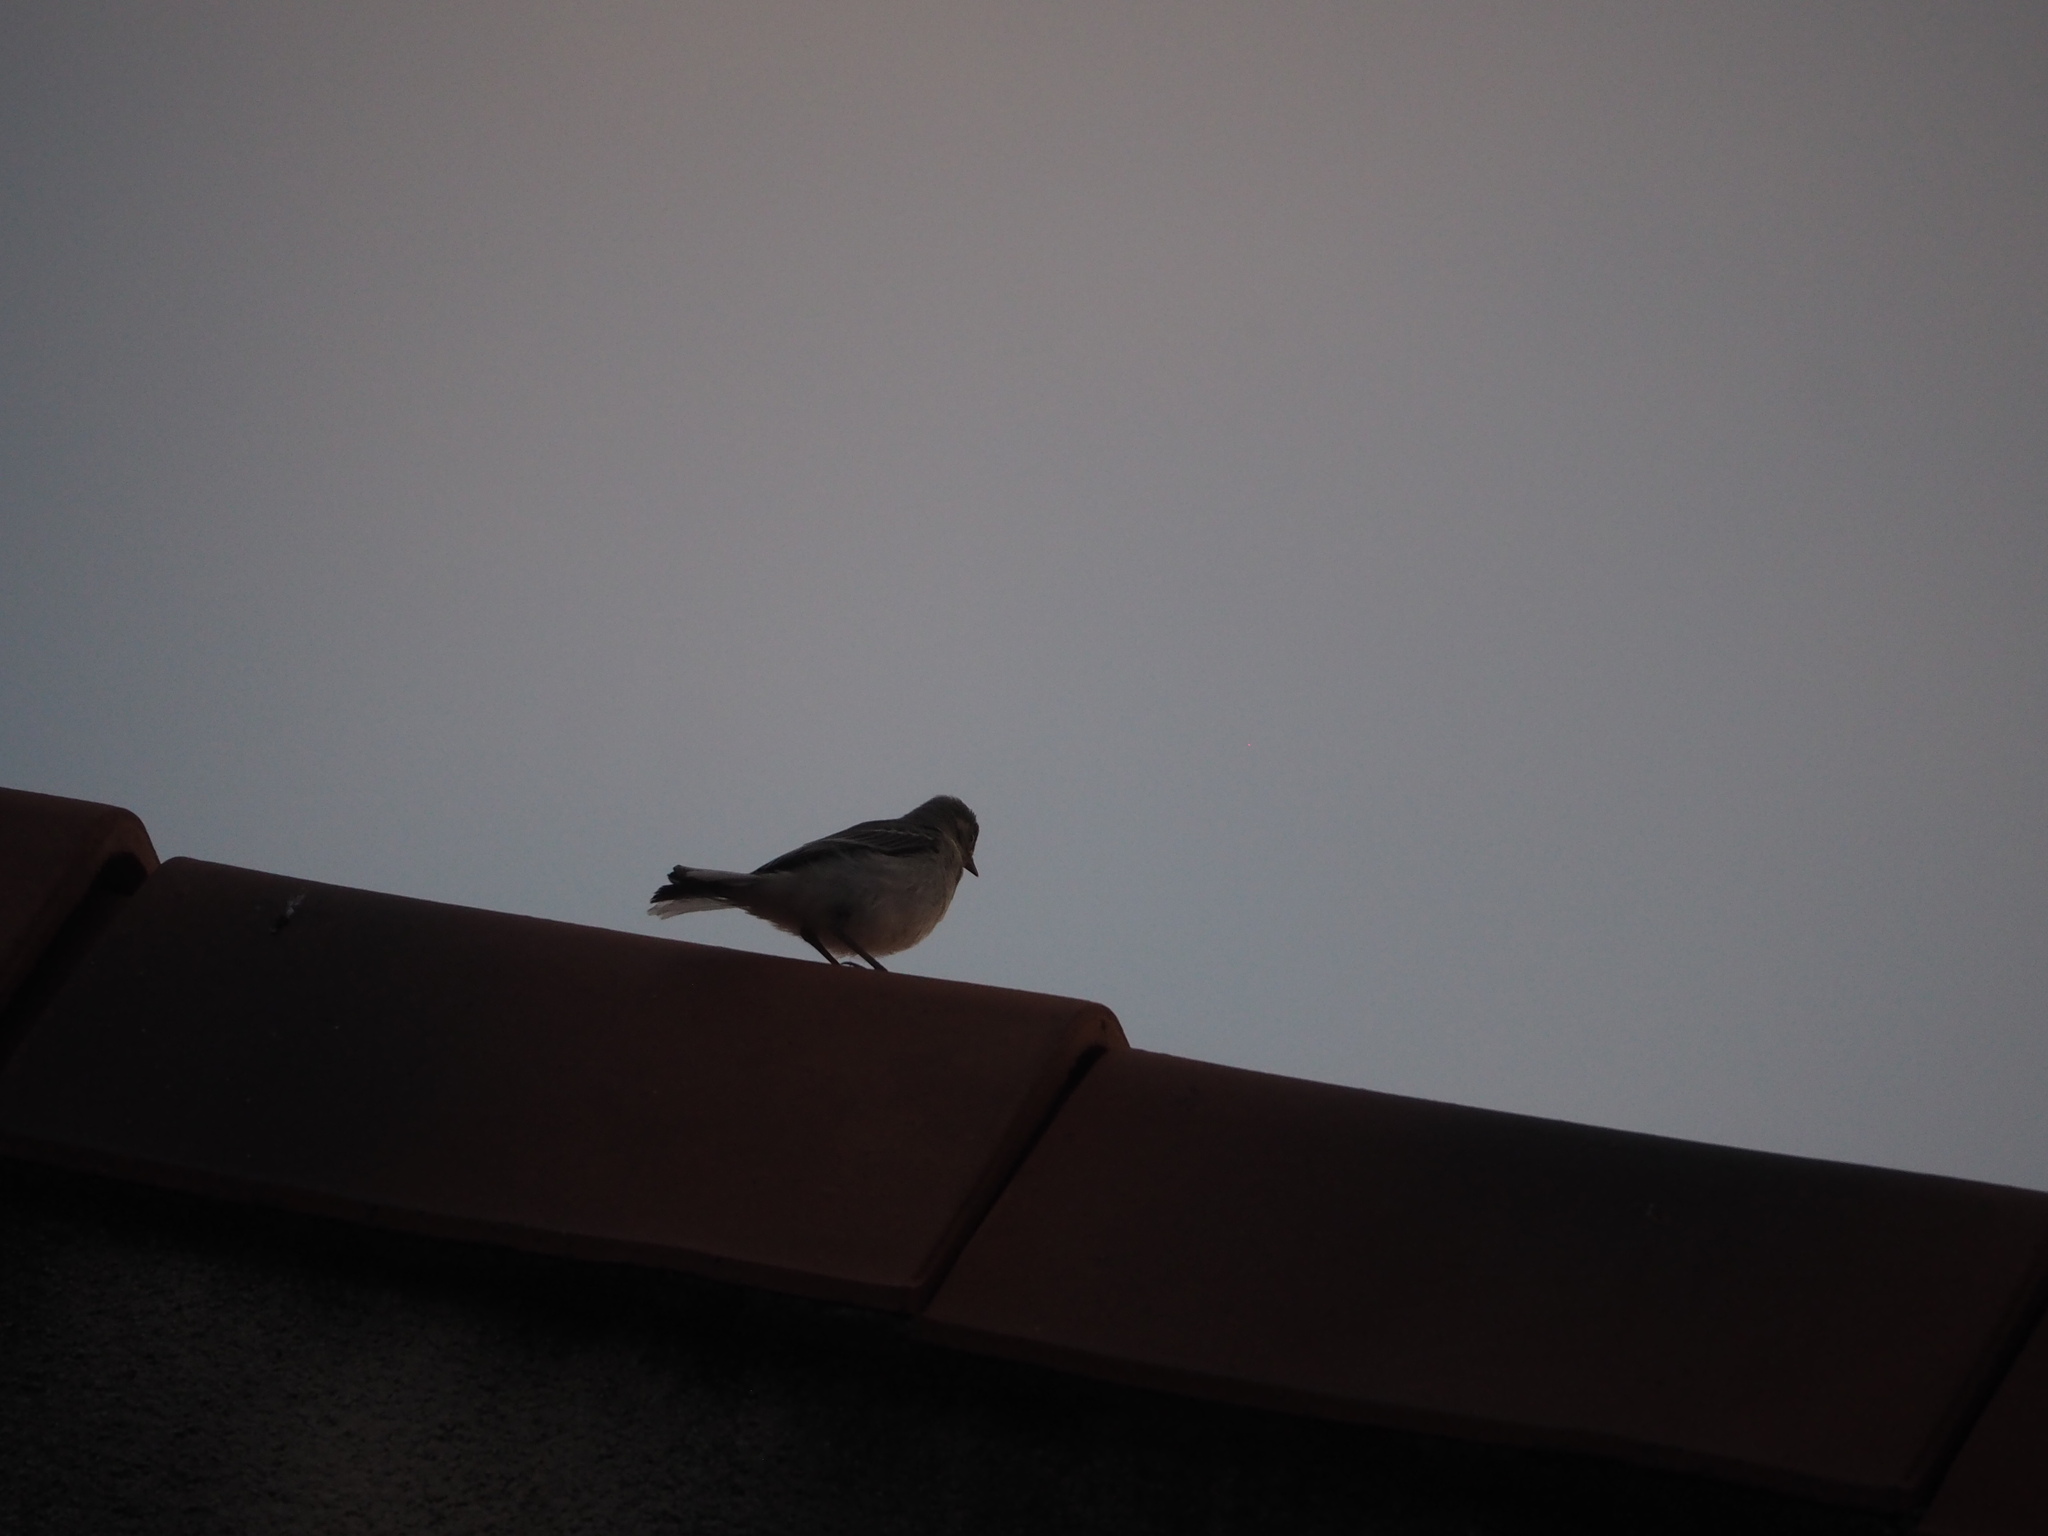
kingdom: Animalia
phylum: Chordata
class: Aves
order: Passeriformes
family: Motacillidae
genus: Motacilla
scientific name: Motacilla alba
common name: White wagtail
